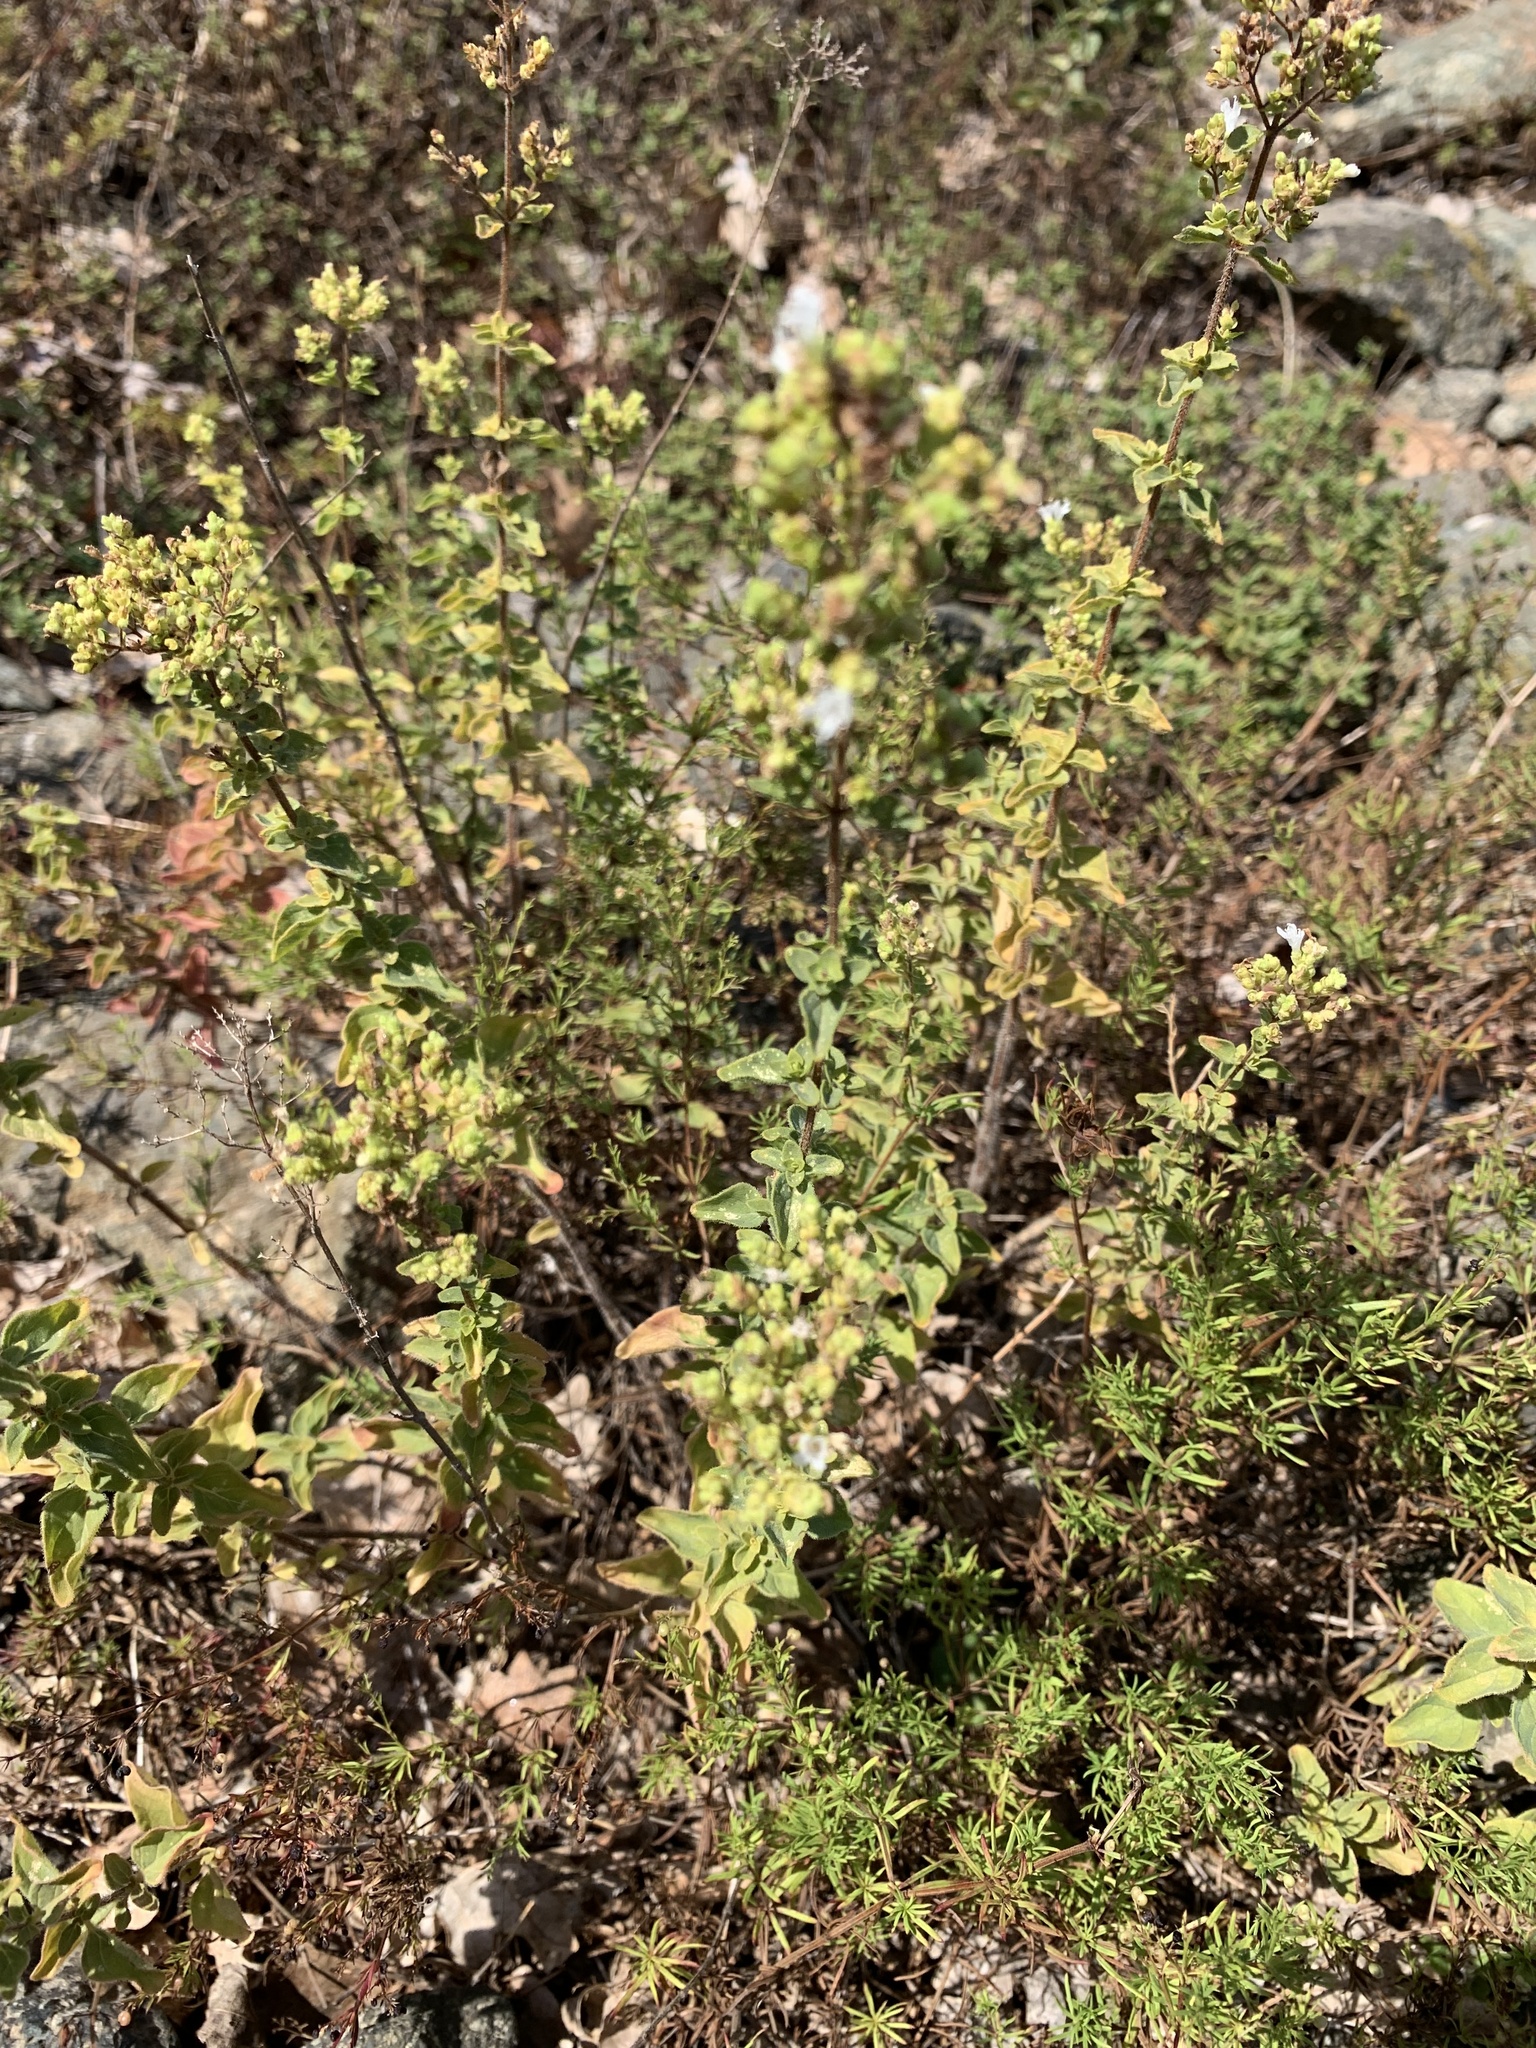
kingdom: Plantae
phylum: Tracheophyta
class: Magnoliopsida
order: Lamiales
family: Lamiaceae
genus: Origanum
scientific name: Origanum vulgare
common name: Wild marjoram
